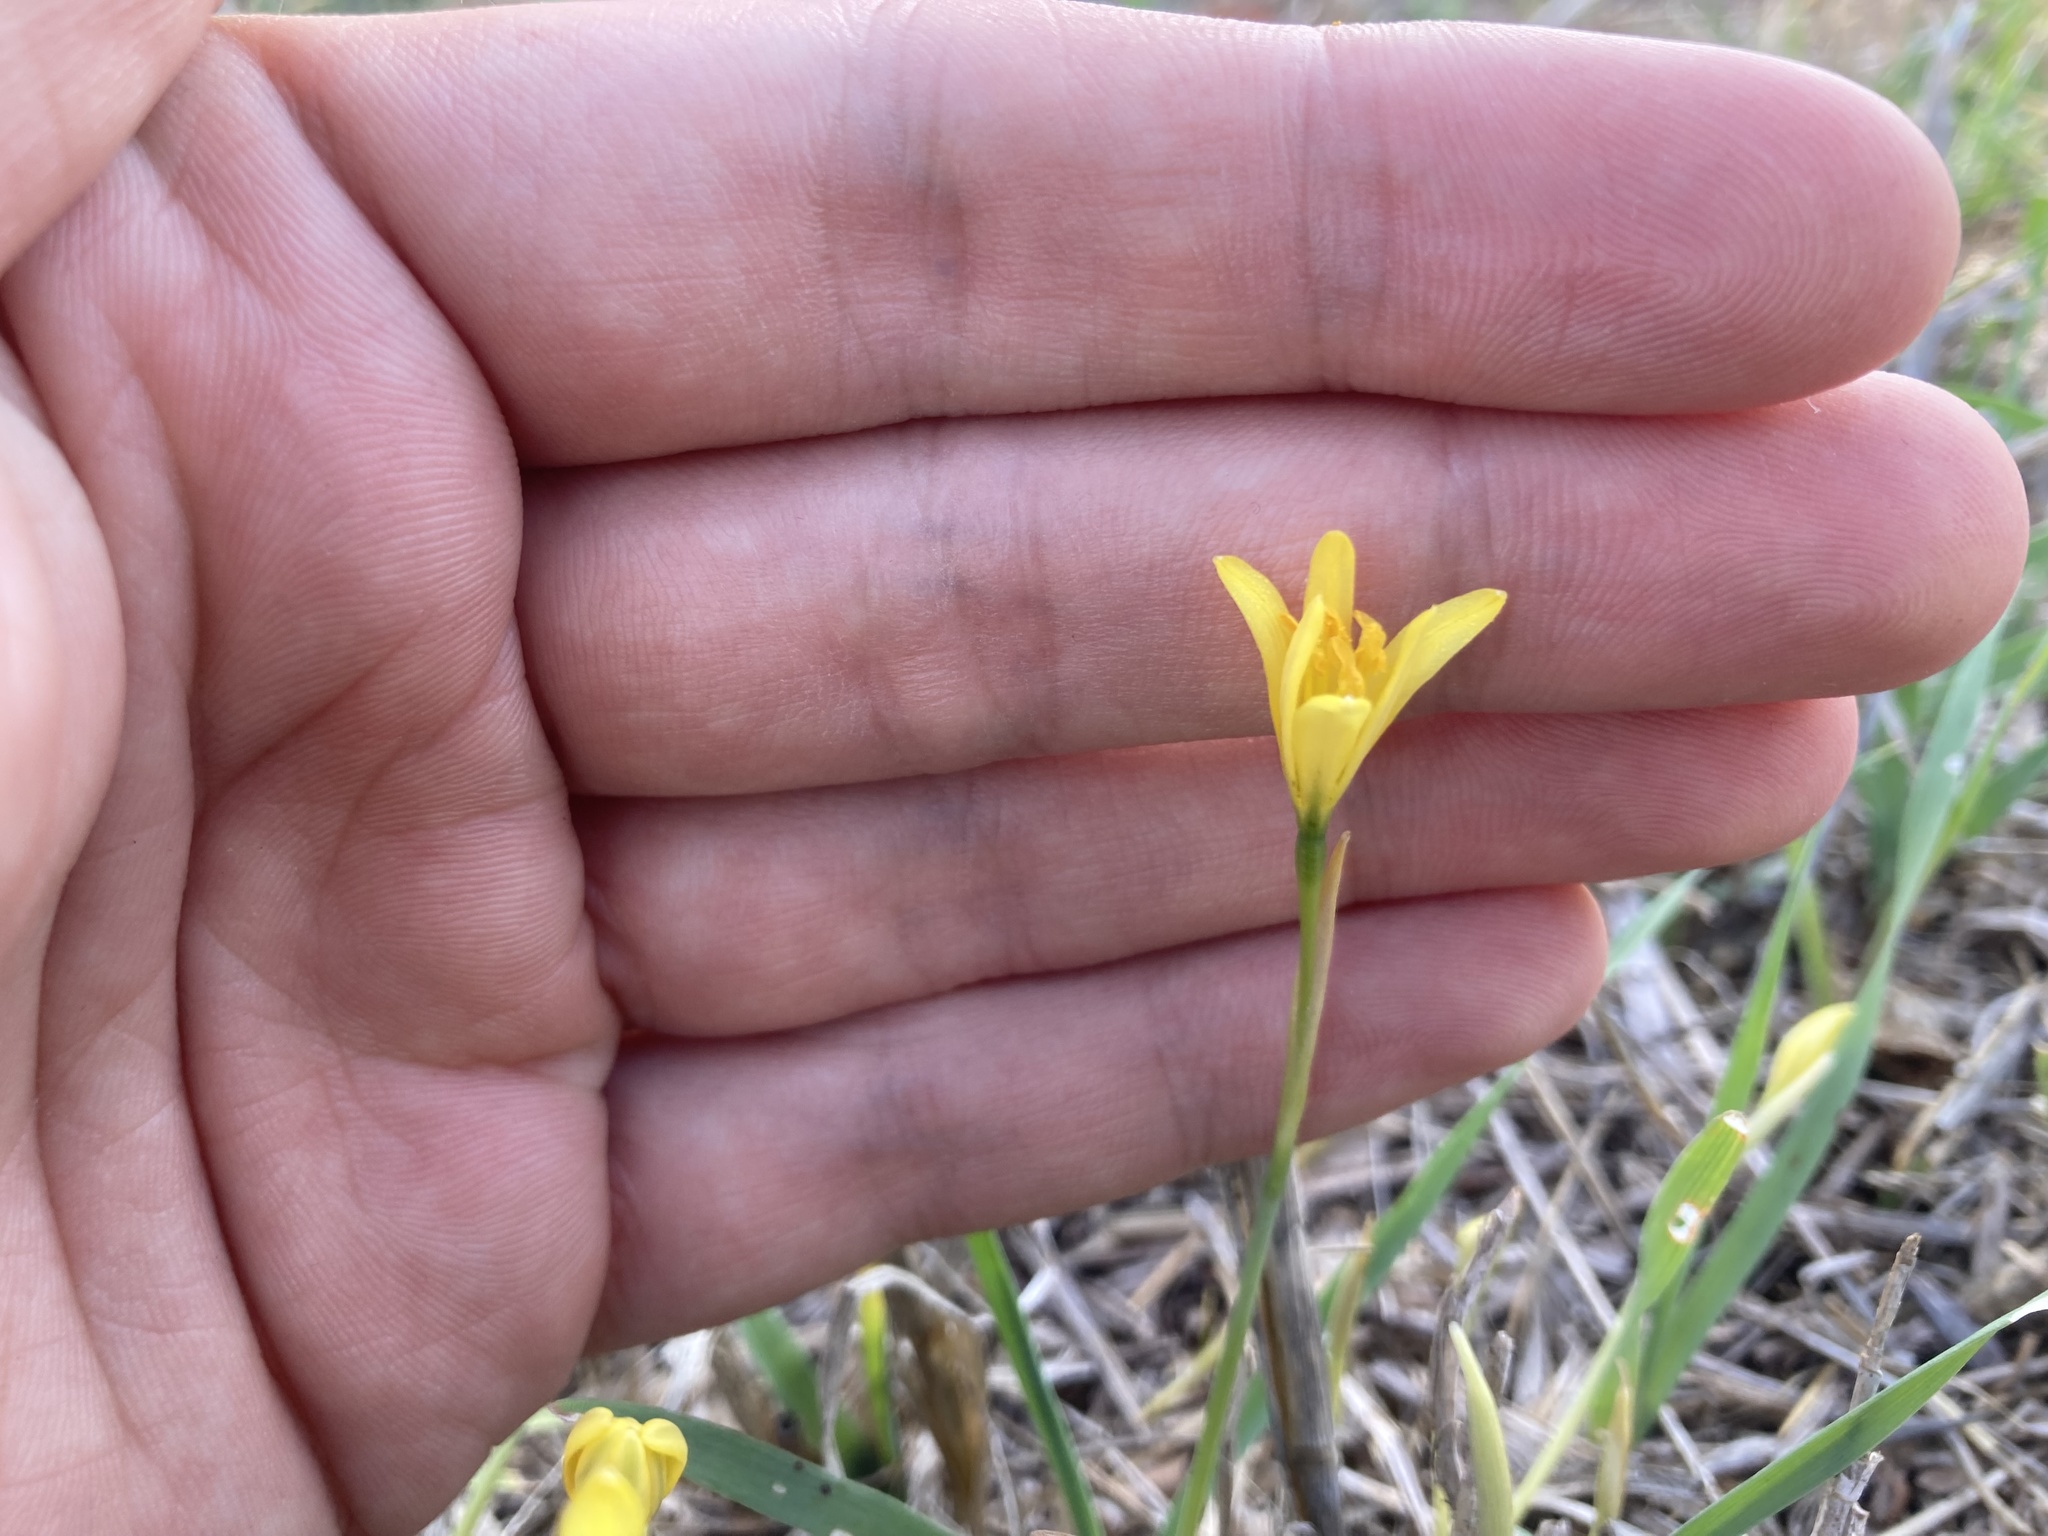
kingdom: Plantae
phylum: Tracheophyta
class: Liliopsida
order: Asparagales
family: Amaryllidaceae
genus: Narcissus
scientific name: Narcissus cavanillesii
